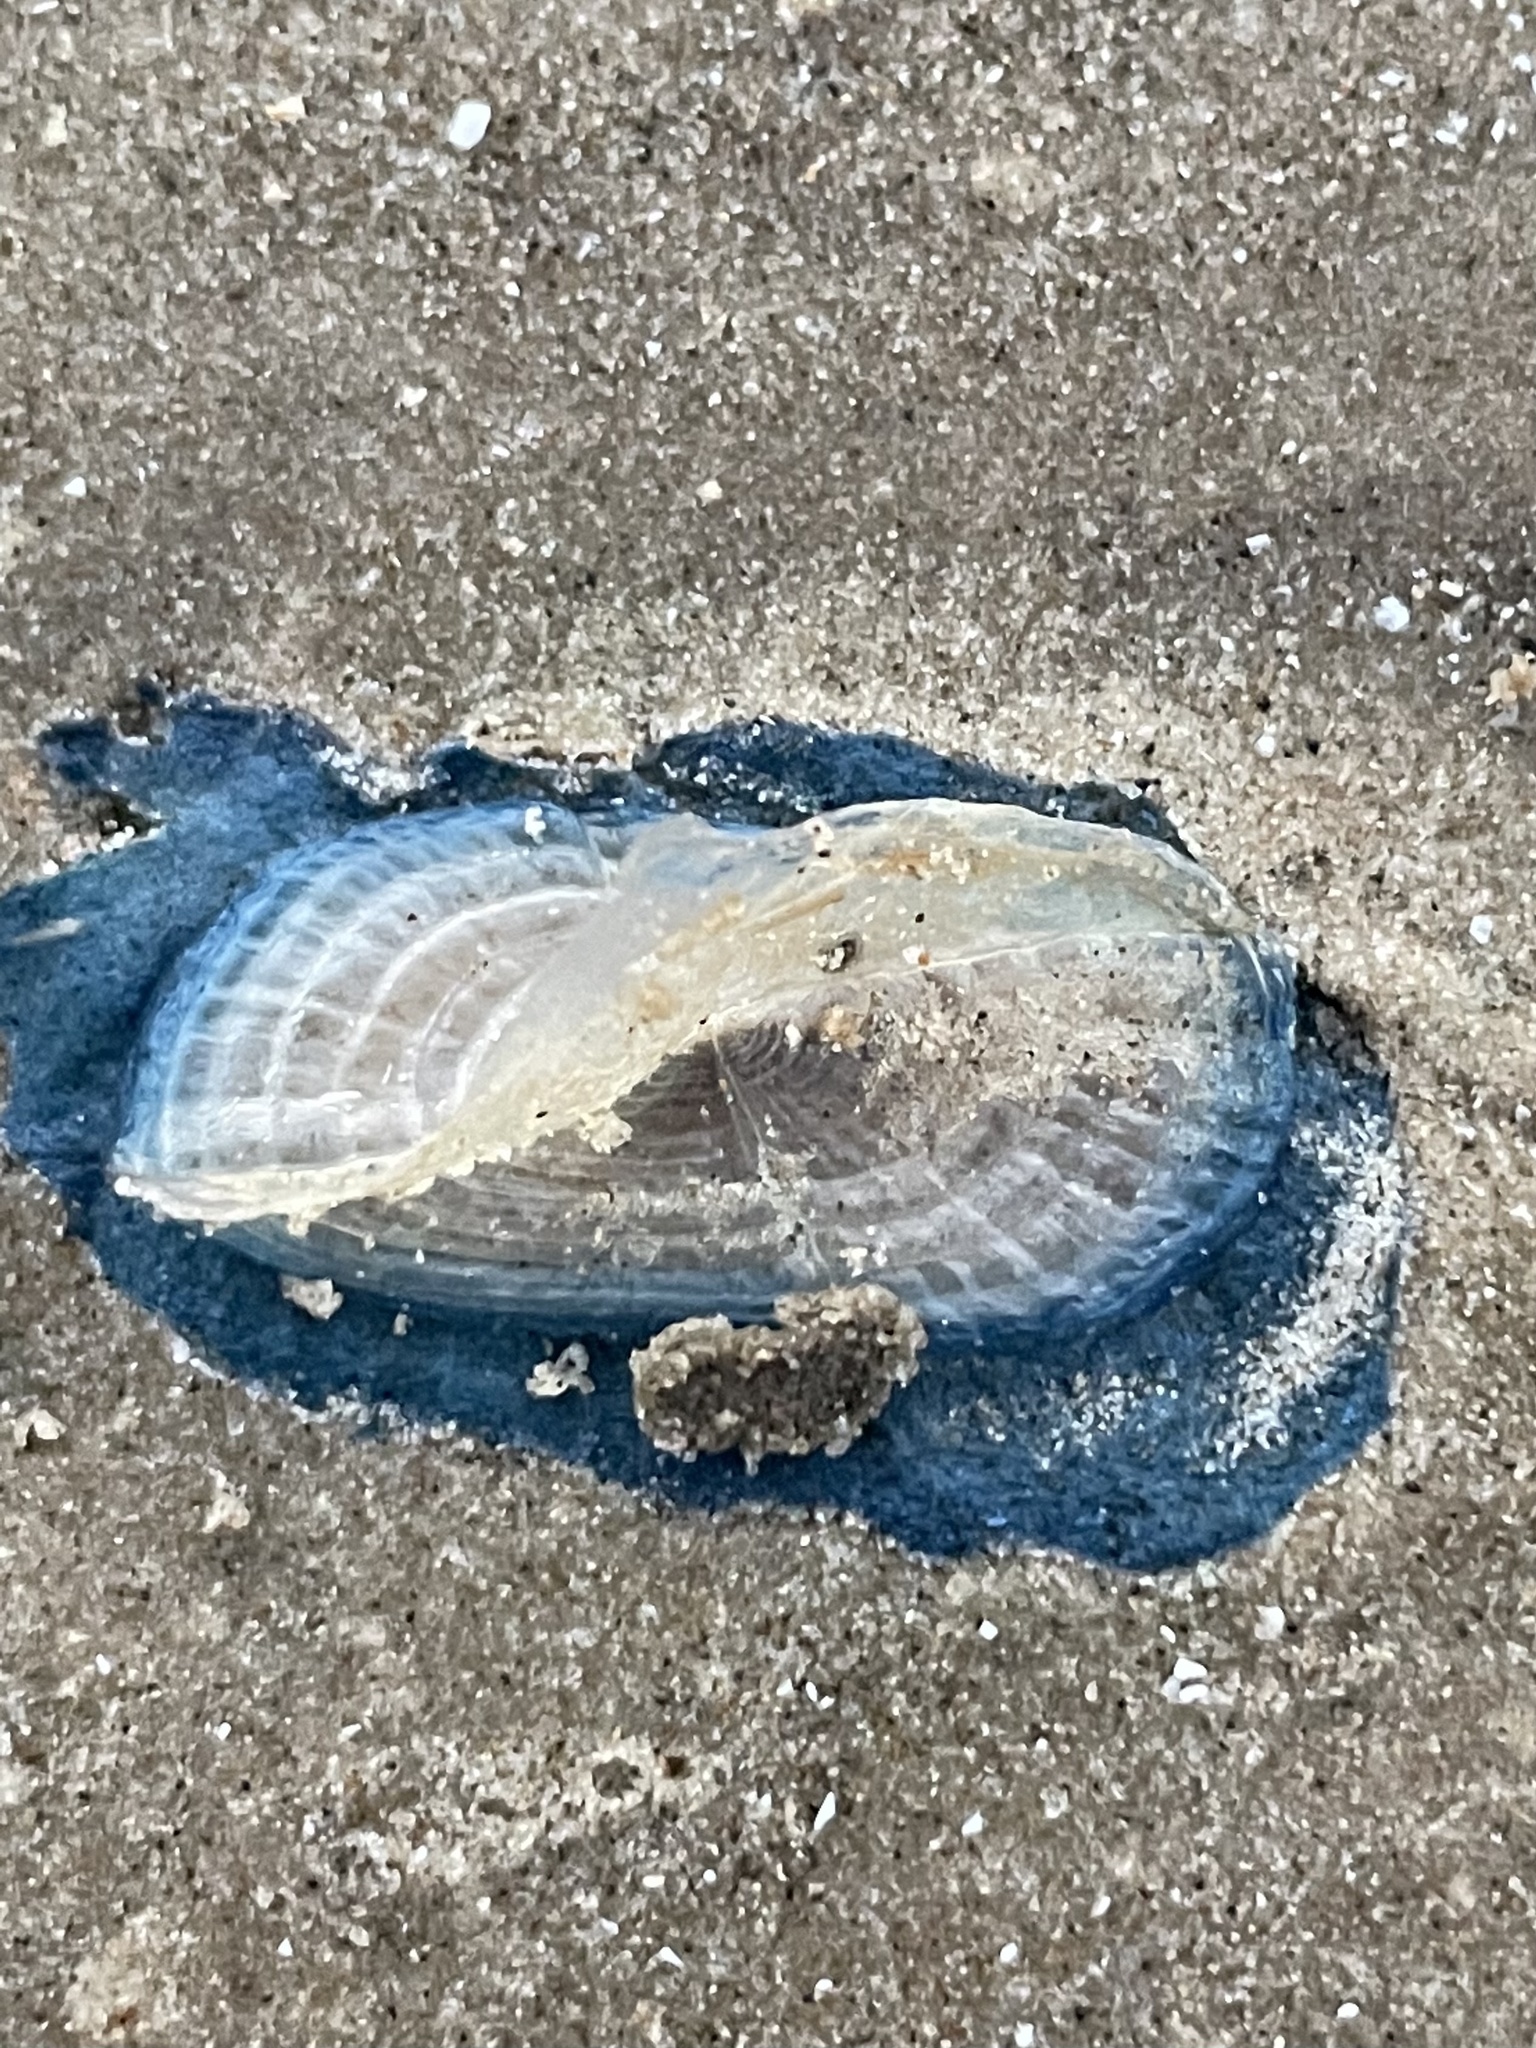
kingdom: Animalia
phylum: Cnidaria
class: Hydrozoa
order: Anthoathecata
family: Porpitidae
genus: Velella
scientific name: Velella velella
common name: By-the-wind-sailor
